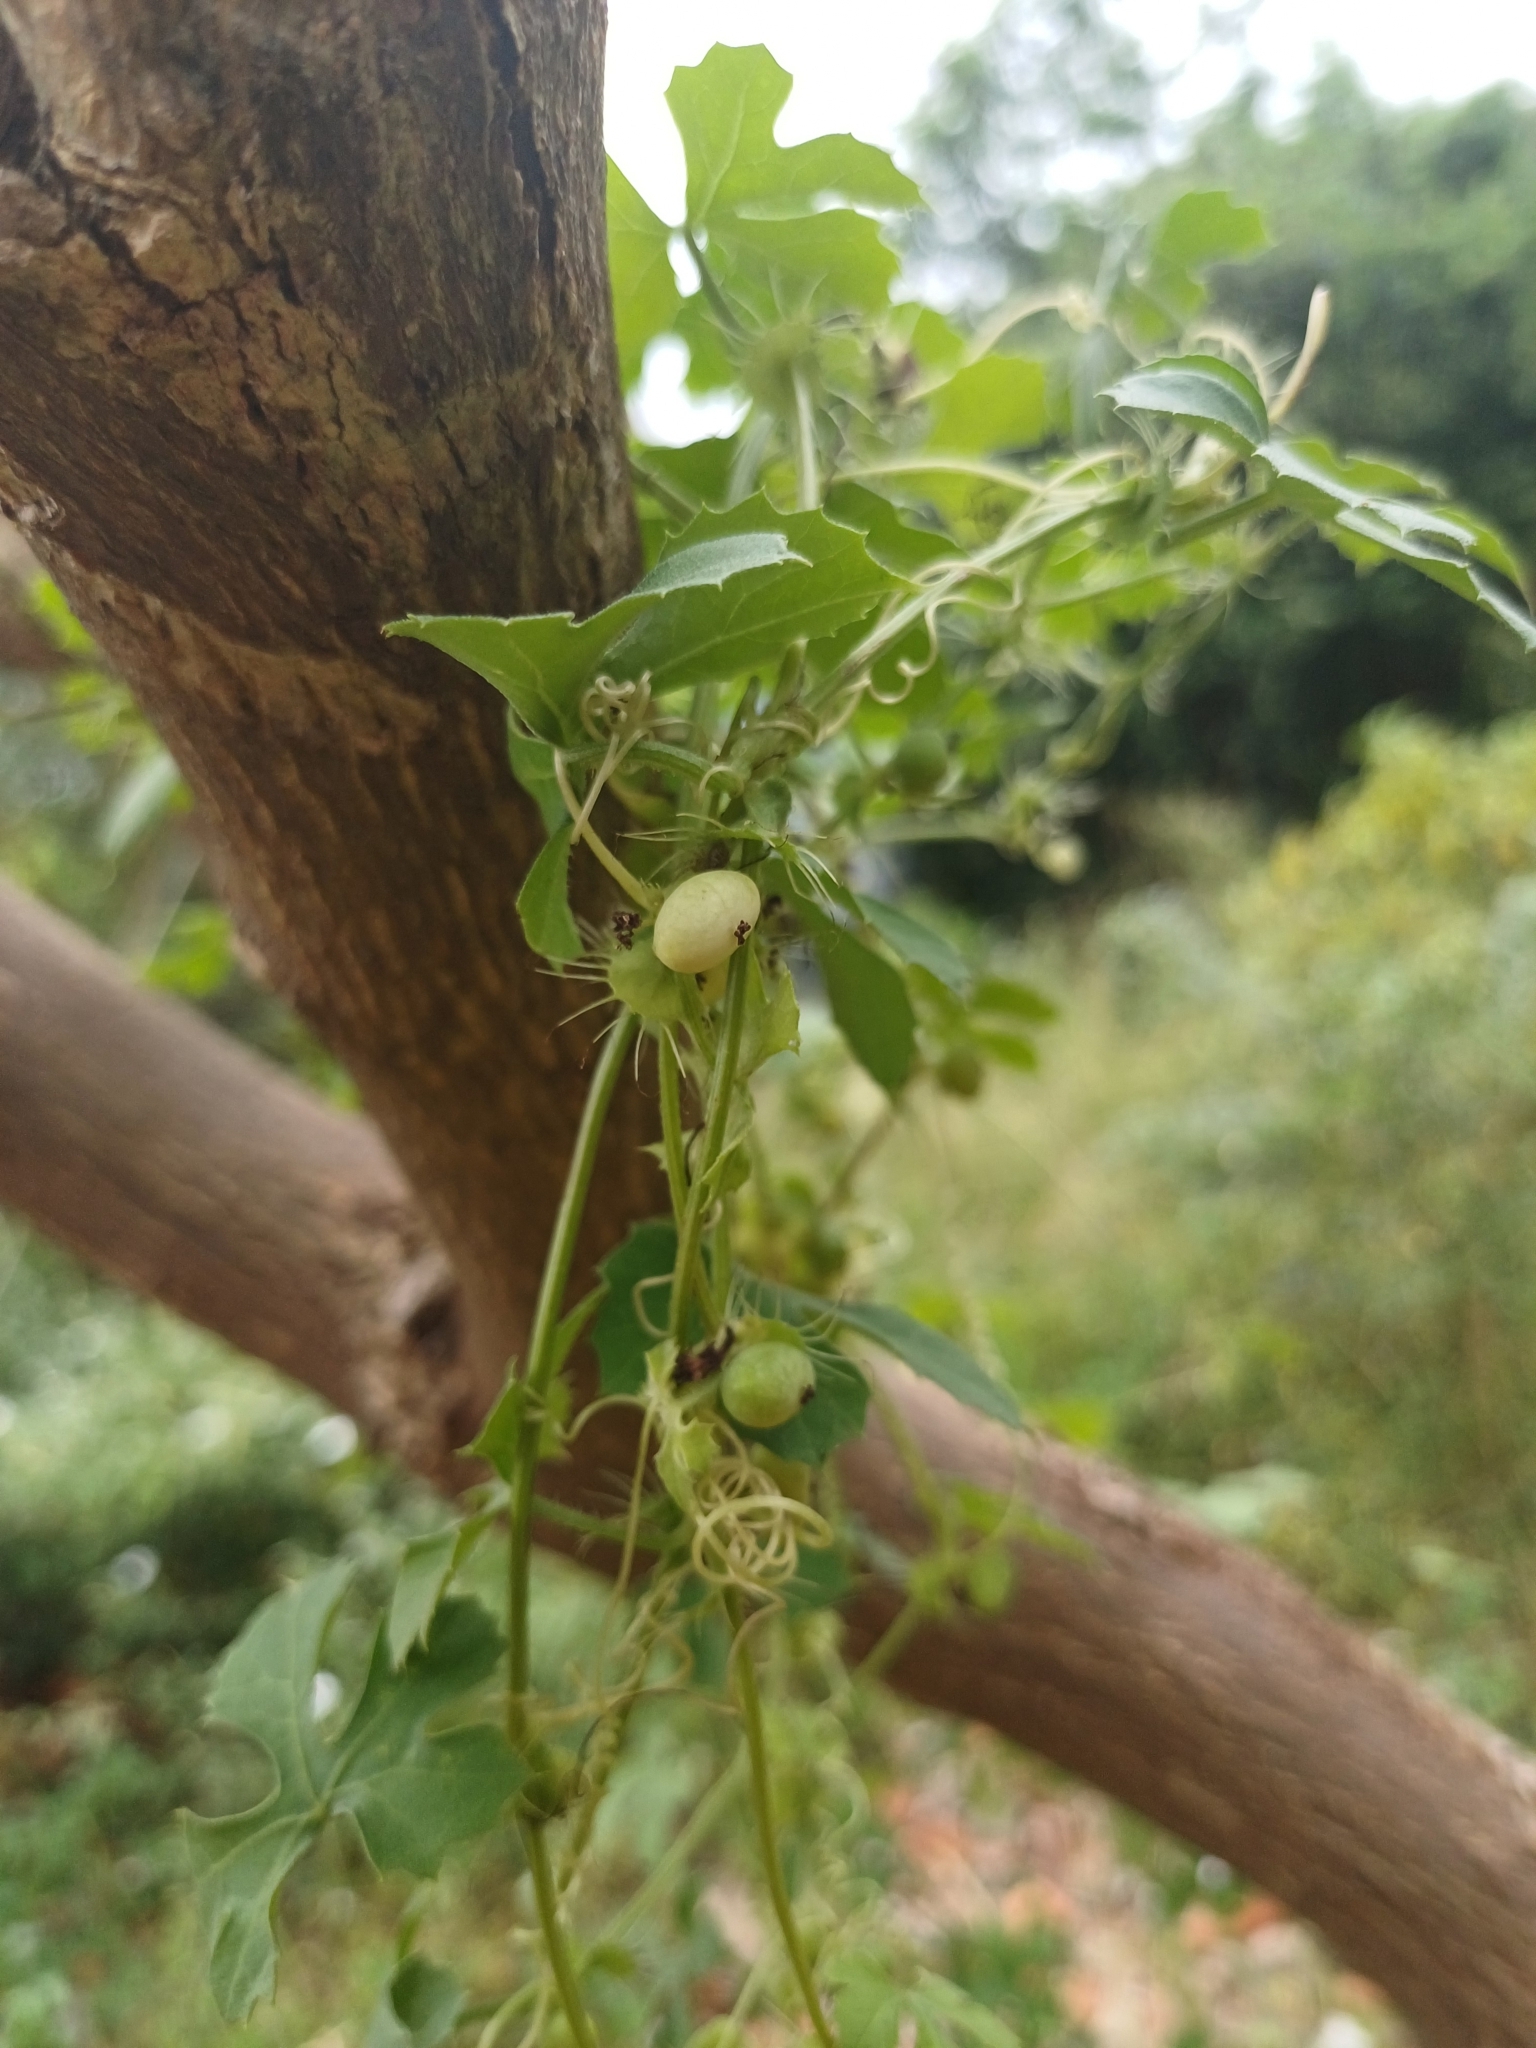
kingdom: Plantae
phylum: Tracheophyta
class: Magnoliopsida
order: Cucurbitales
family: Cucurbitaceae
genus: Blastania
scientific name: Blastania garcinii
